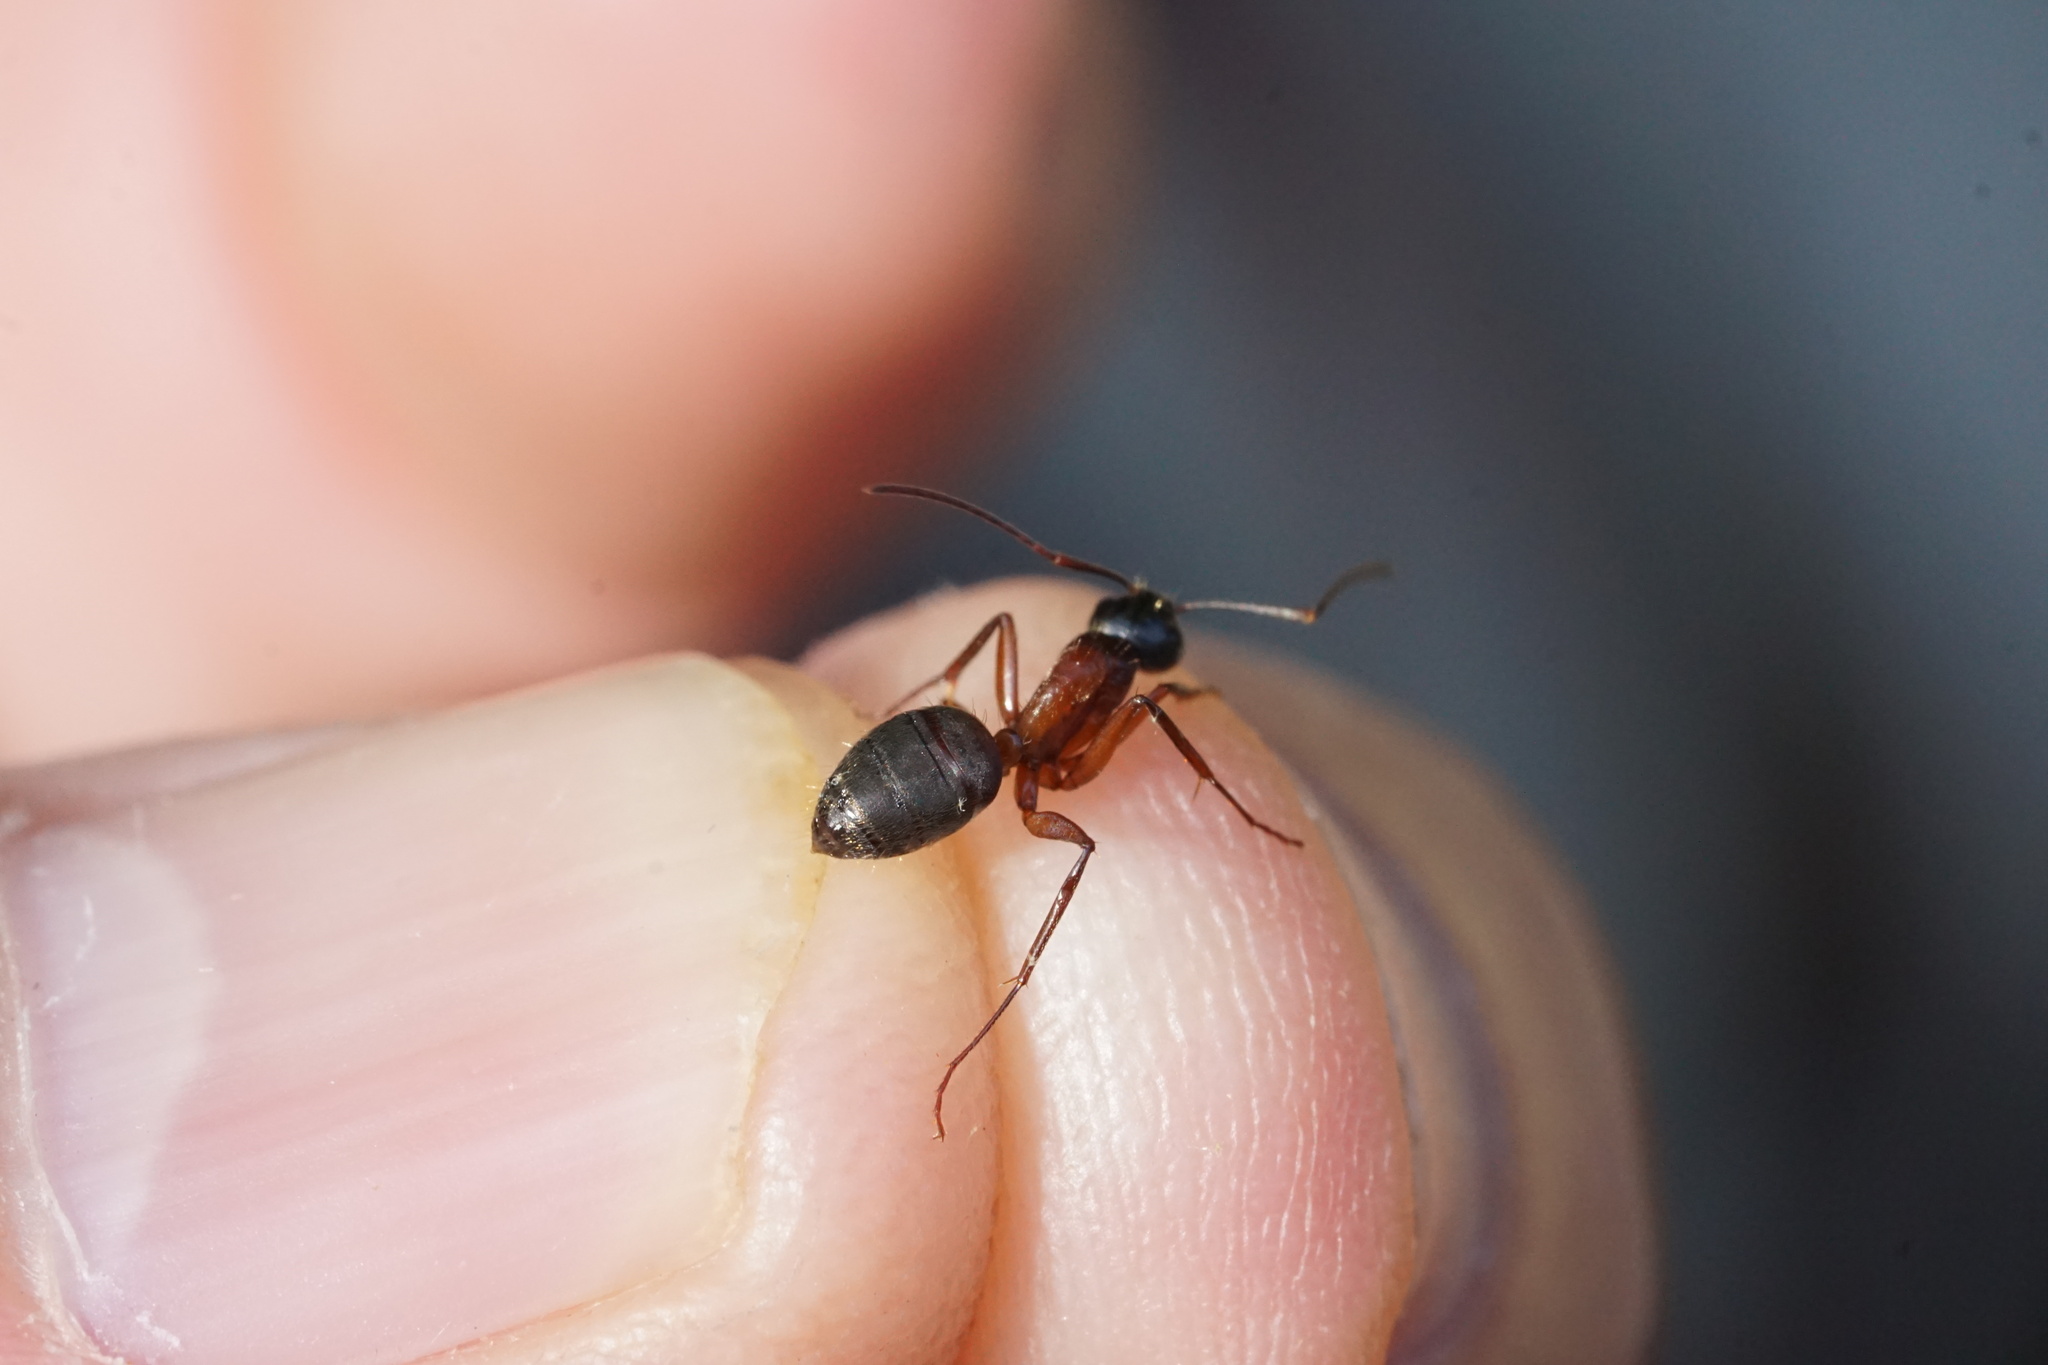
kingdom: Animalia
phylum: Arthropoda
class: Insecta
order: Hymenoptera
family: Formicidae
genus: Camponotus
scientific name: Camponotus chromaiodes
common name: Red carpenter ant
